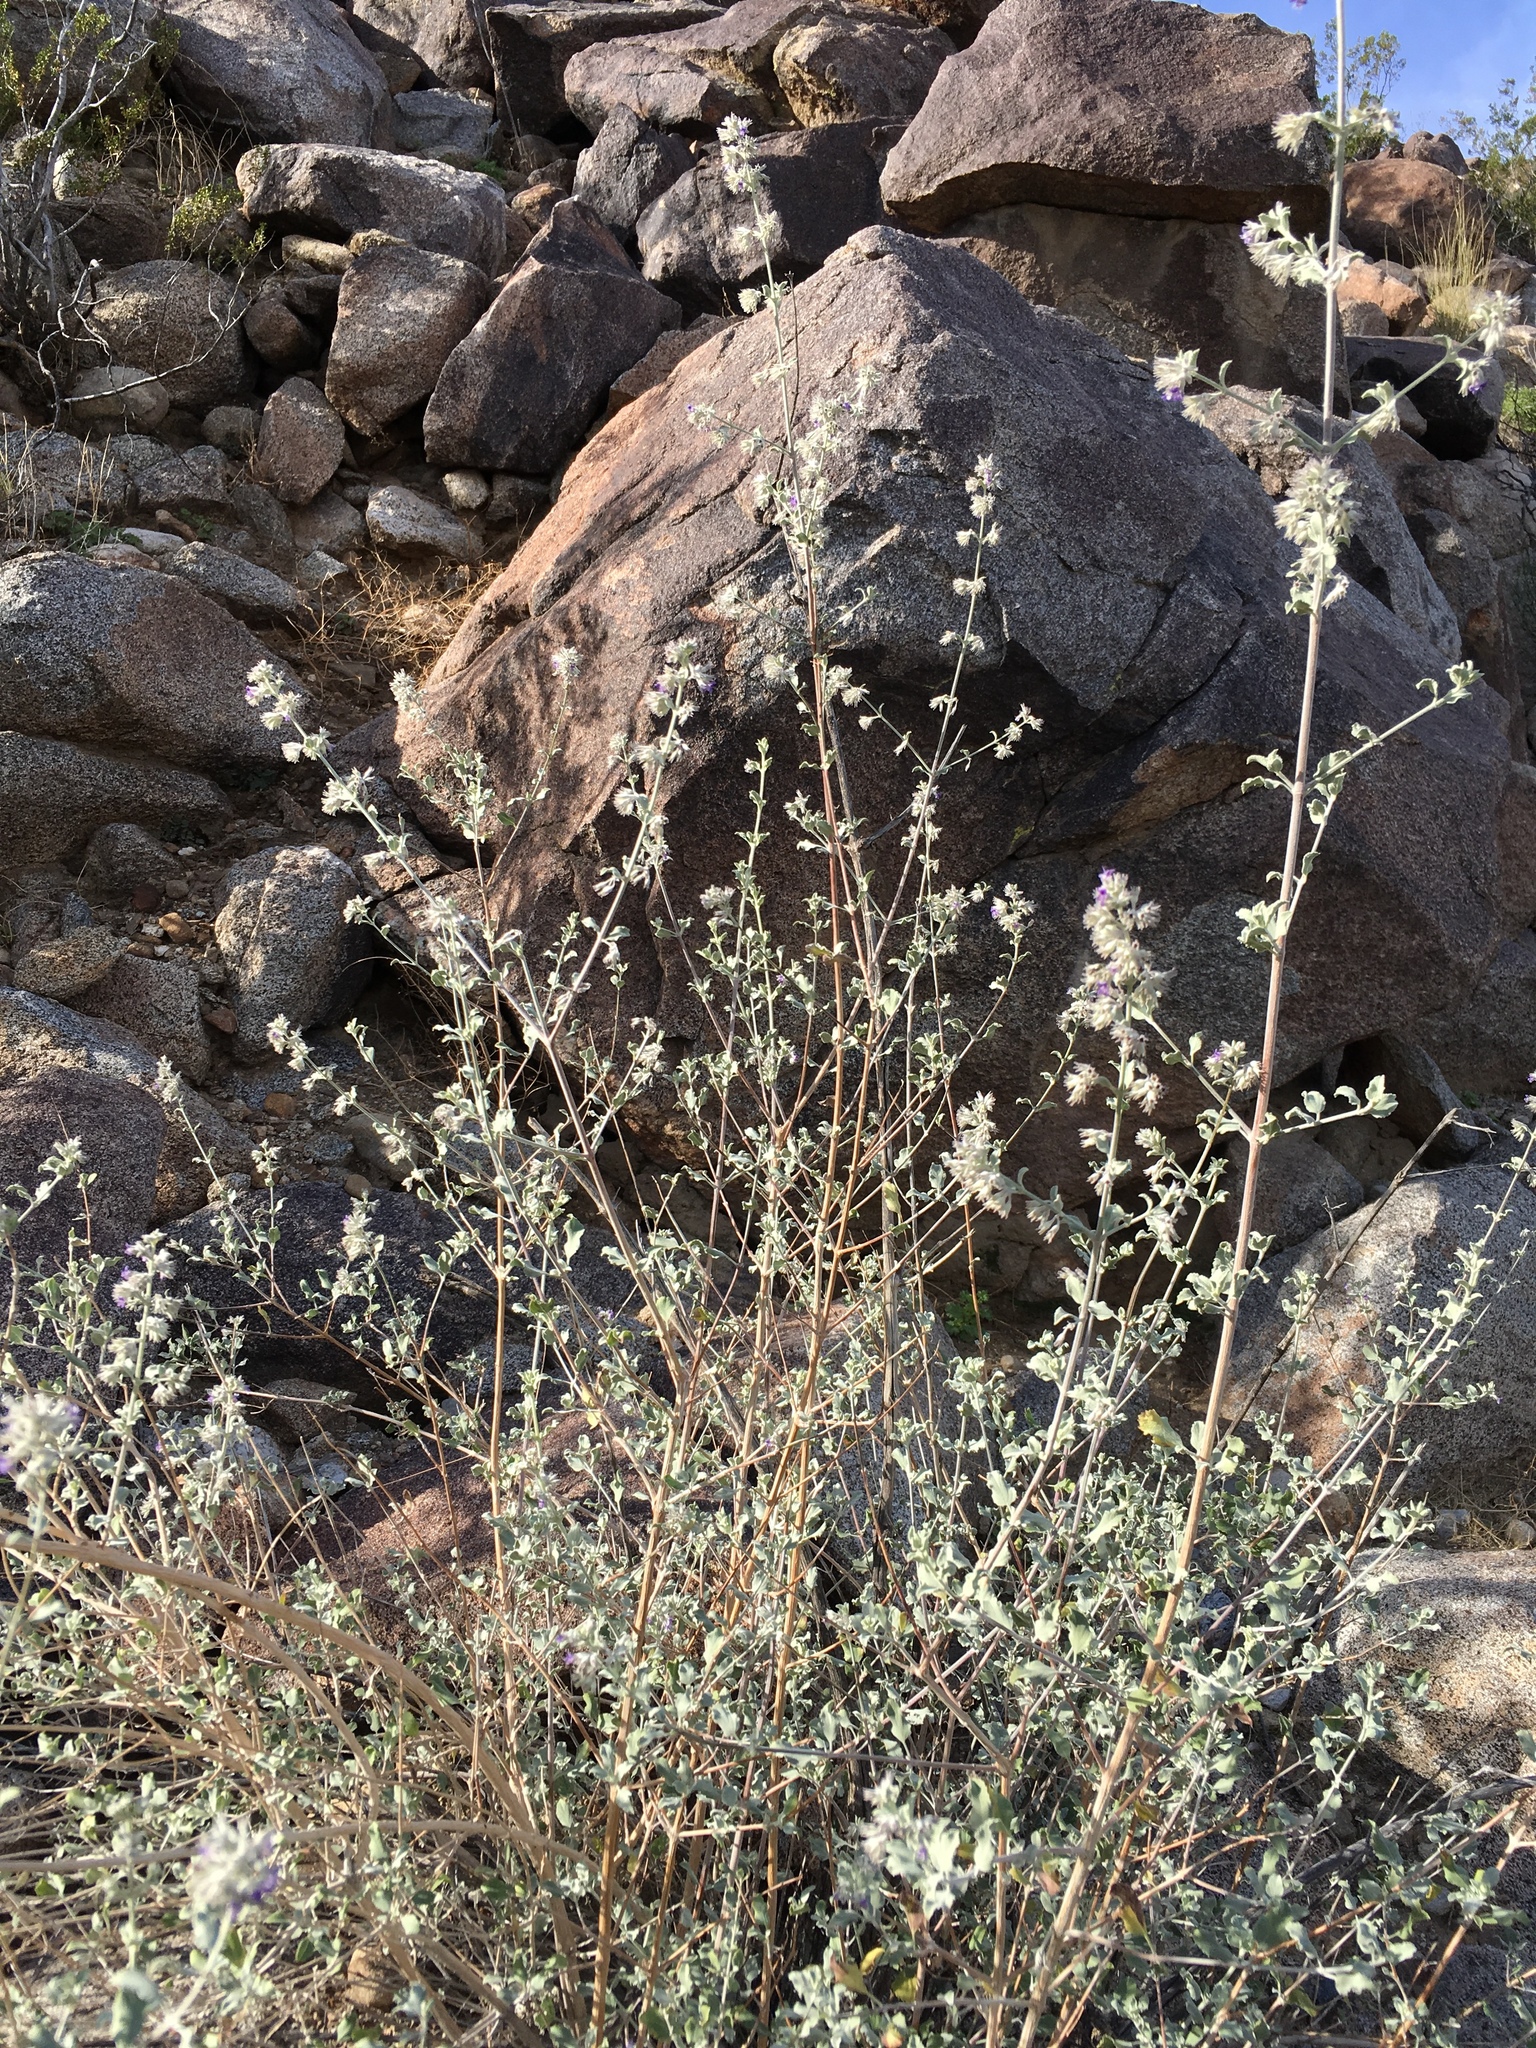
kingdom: Plantae
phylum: Tracheophyta
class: Magnoliopsida
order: Lamiales
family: Lamiaceae
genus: Condea
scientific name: Condea emoryi
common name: Chia
